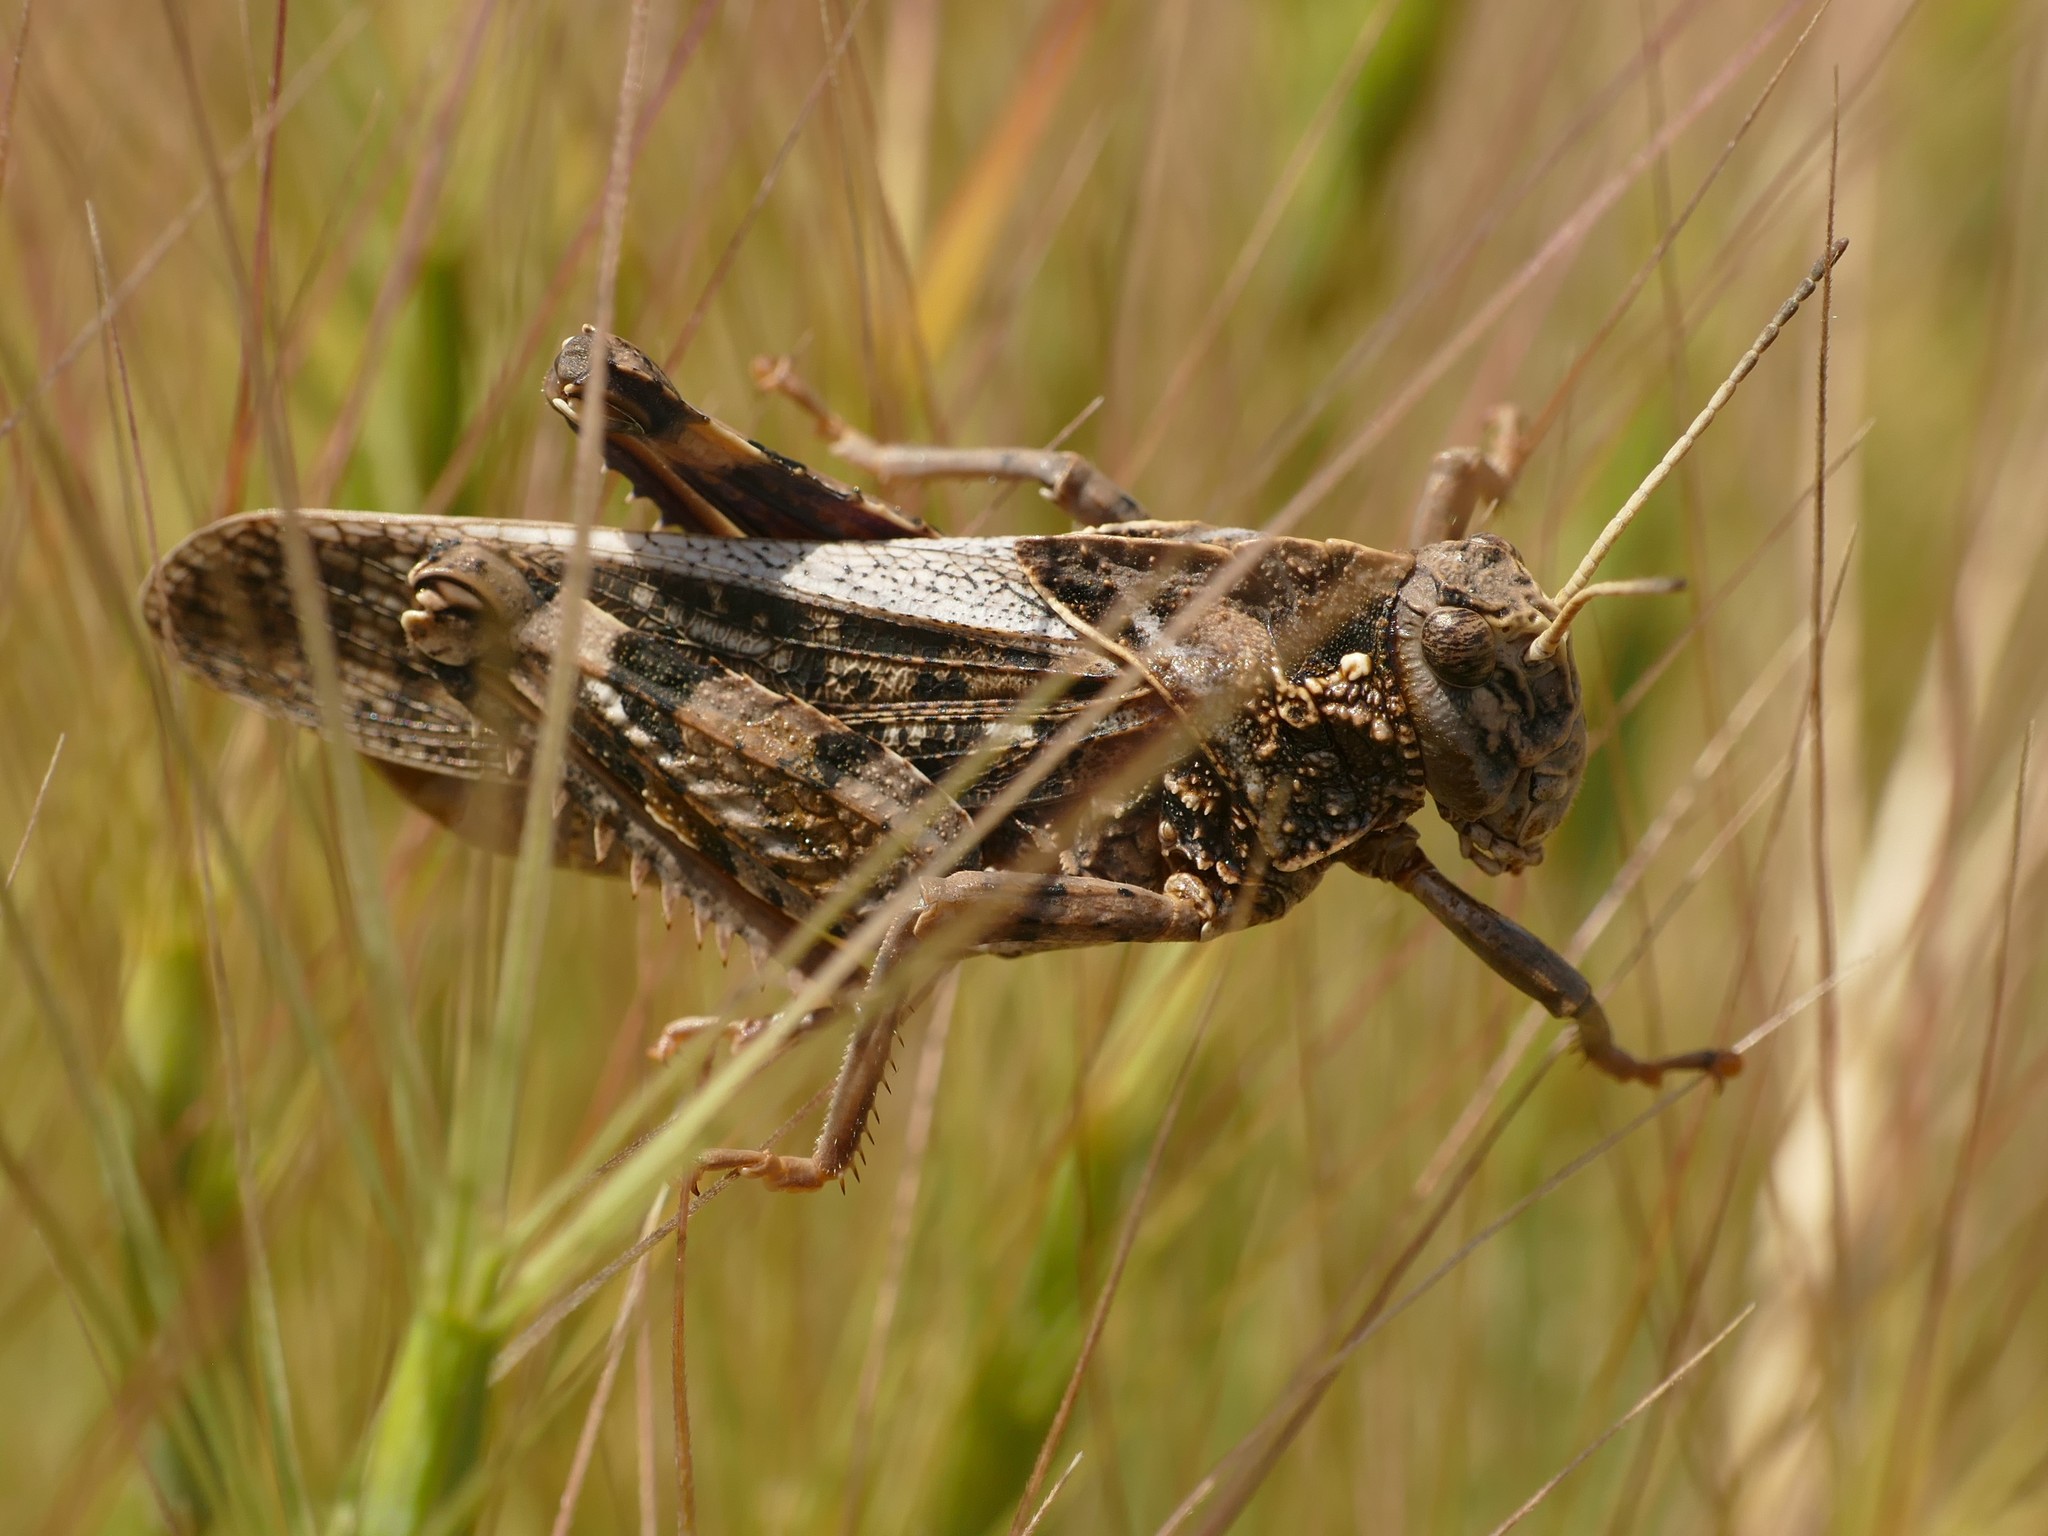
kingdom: Animalia
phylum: Arthropoda
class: Insecta
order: Orthoptera
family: Pamphagidae
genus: Prionotropis
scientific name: Prionotropis flexuosa
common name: Tortuous stone grasshopper
